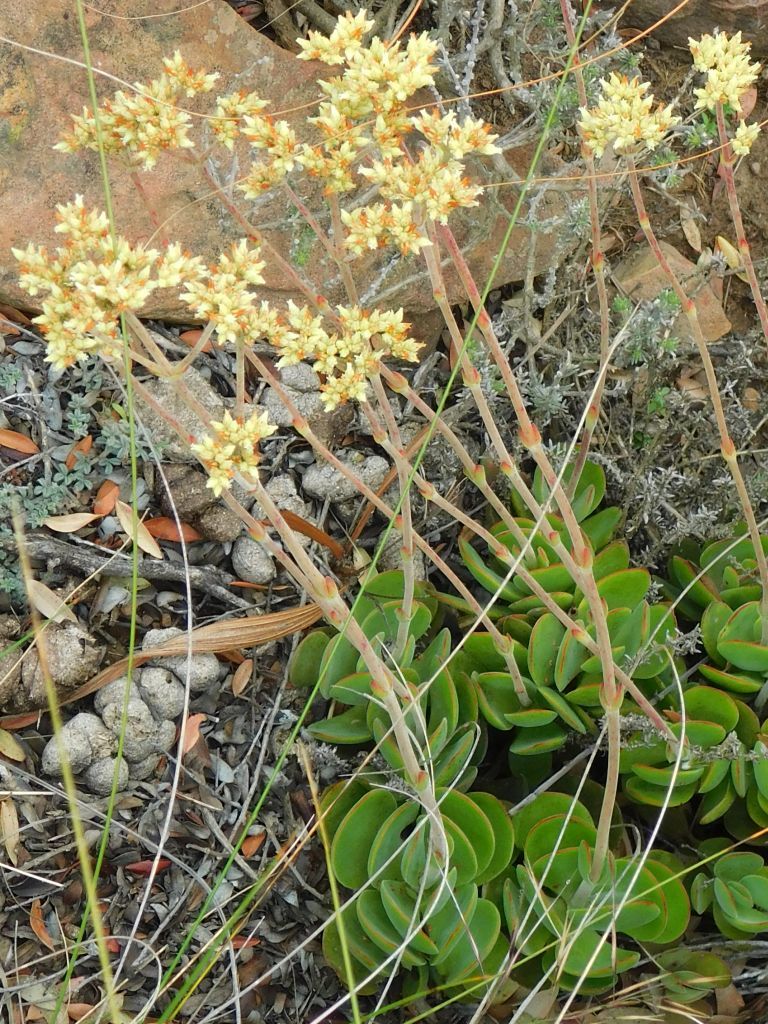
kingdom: Plantae
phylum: Tracheophyta
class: Magnoliopsida
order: Saxifragales
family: Crassulaceae
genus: Crassula
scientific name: Crassula atropurpurea
